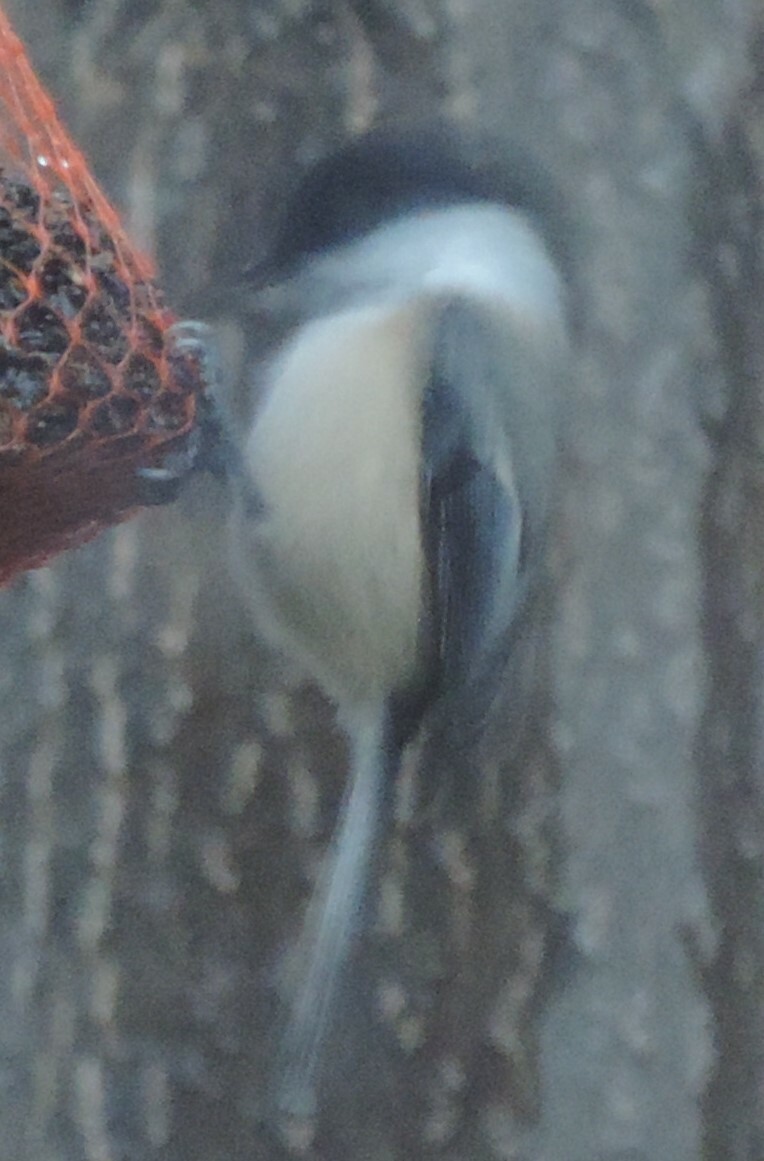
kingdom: Animalia
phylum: Chordata
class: Aves
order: Passeriformes
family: Paridae
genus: Poecile
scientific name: Poecile atricapillus
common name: Black-capped chickadee
